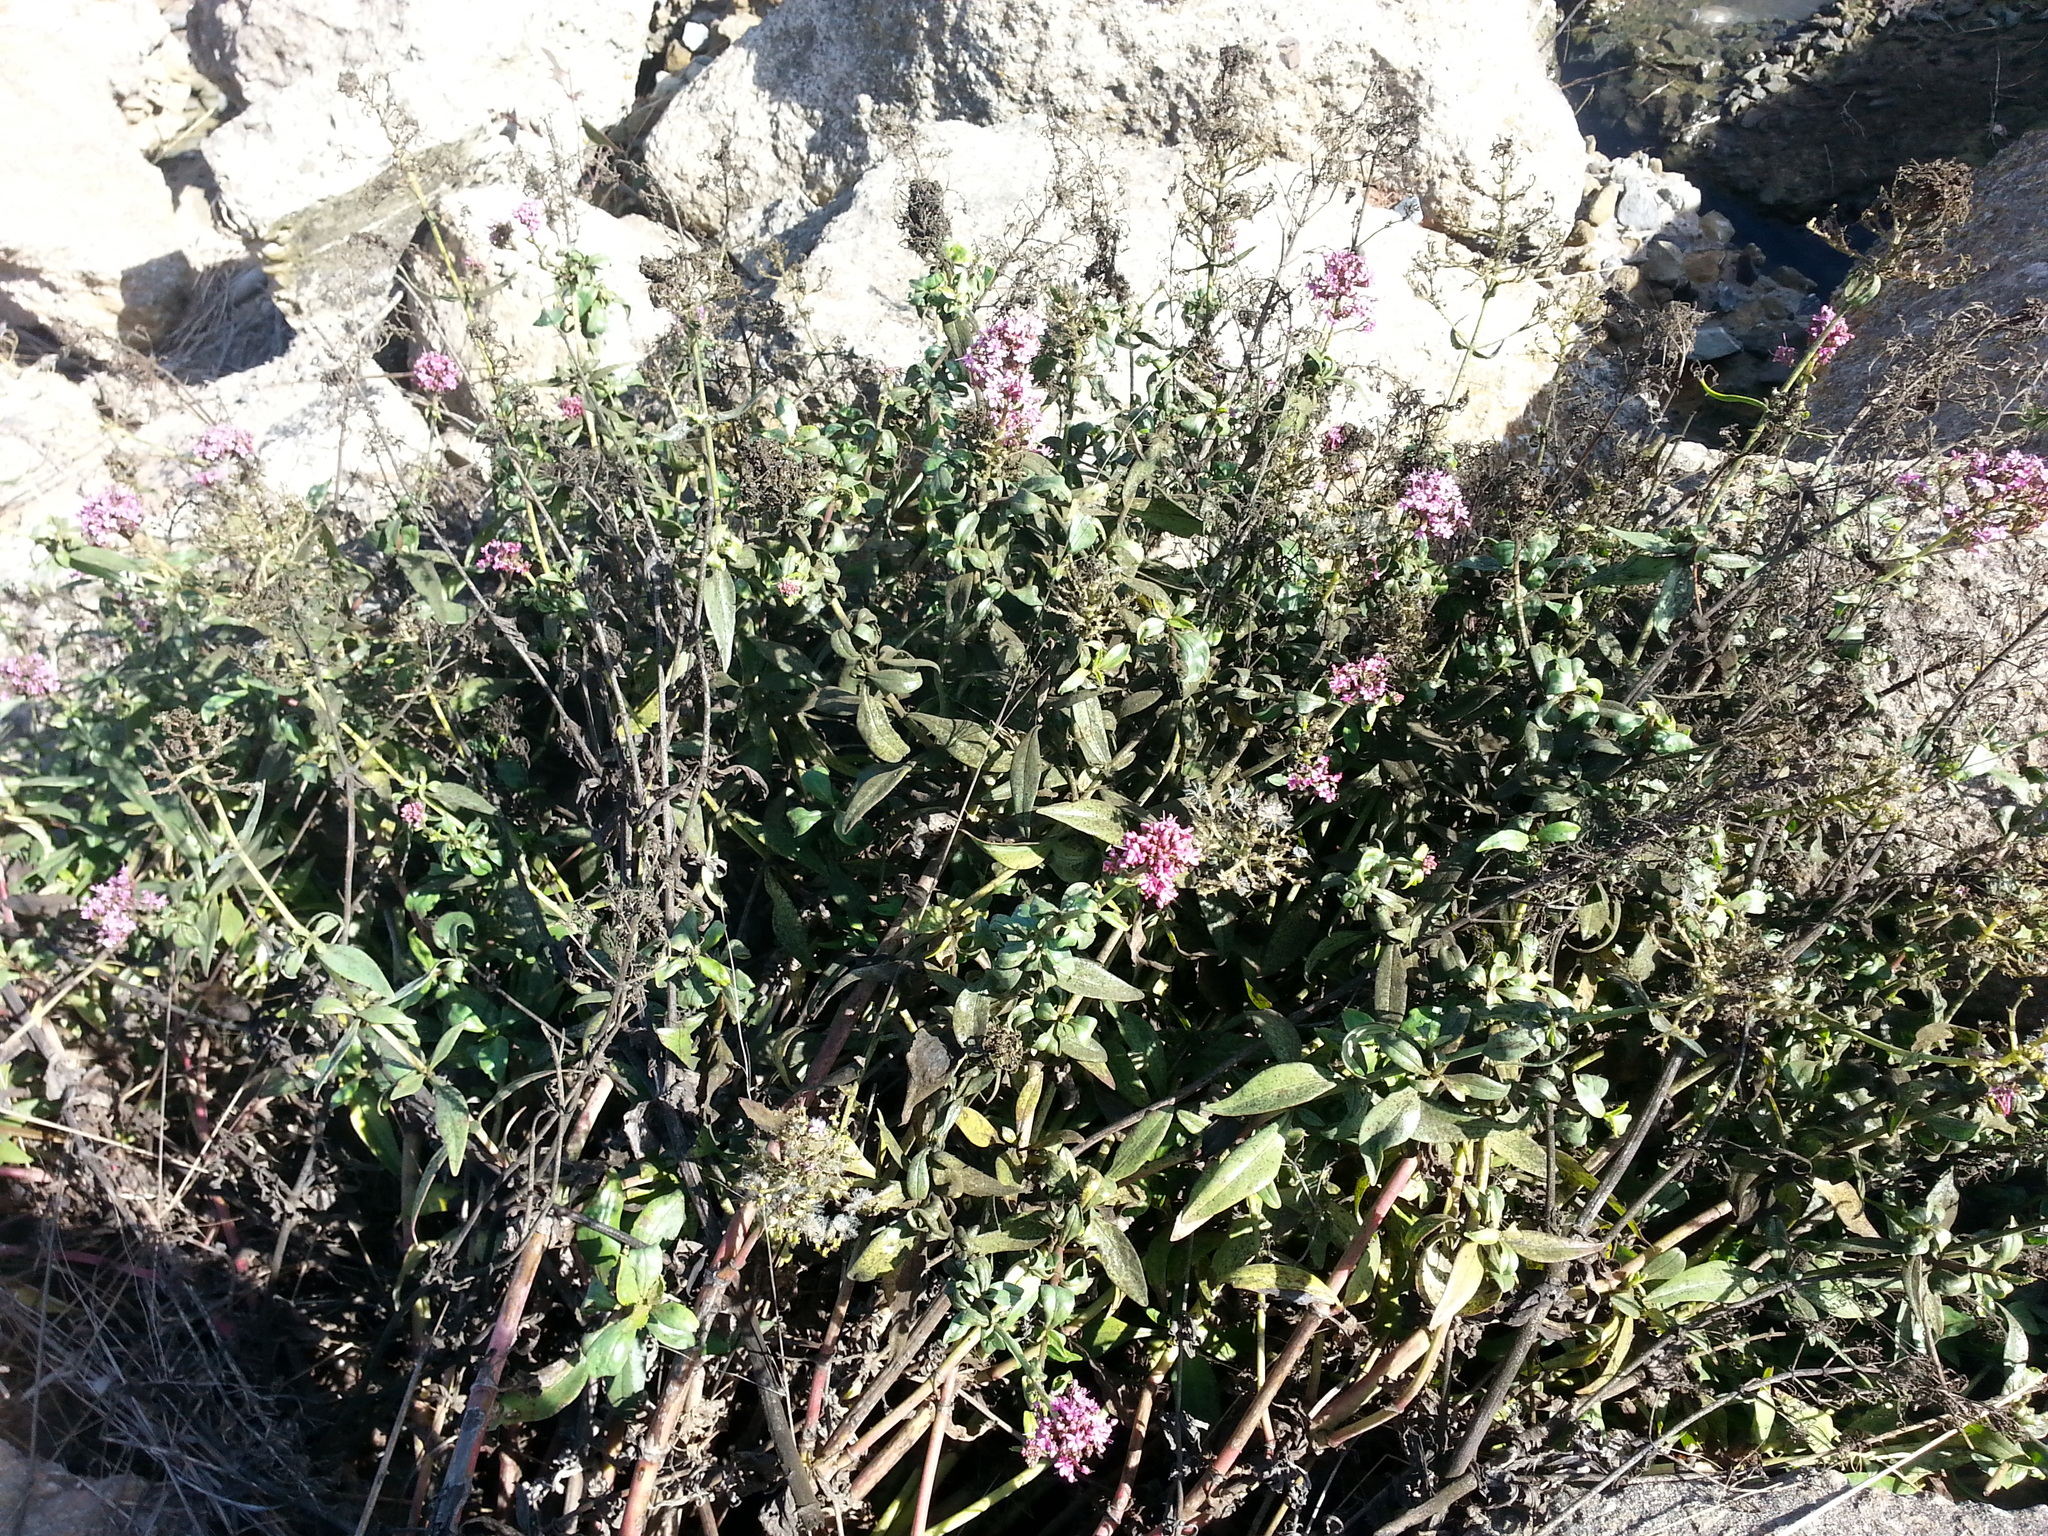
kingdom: Plantae
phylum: Tracheophyta
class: Magnoliopsida
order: Dipsacales
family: Caprifoliaceae
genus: Centranthus
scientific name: Centranthus ruber
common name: Red valerian
